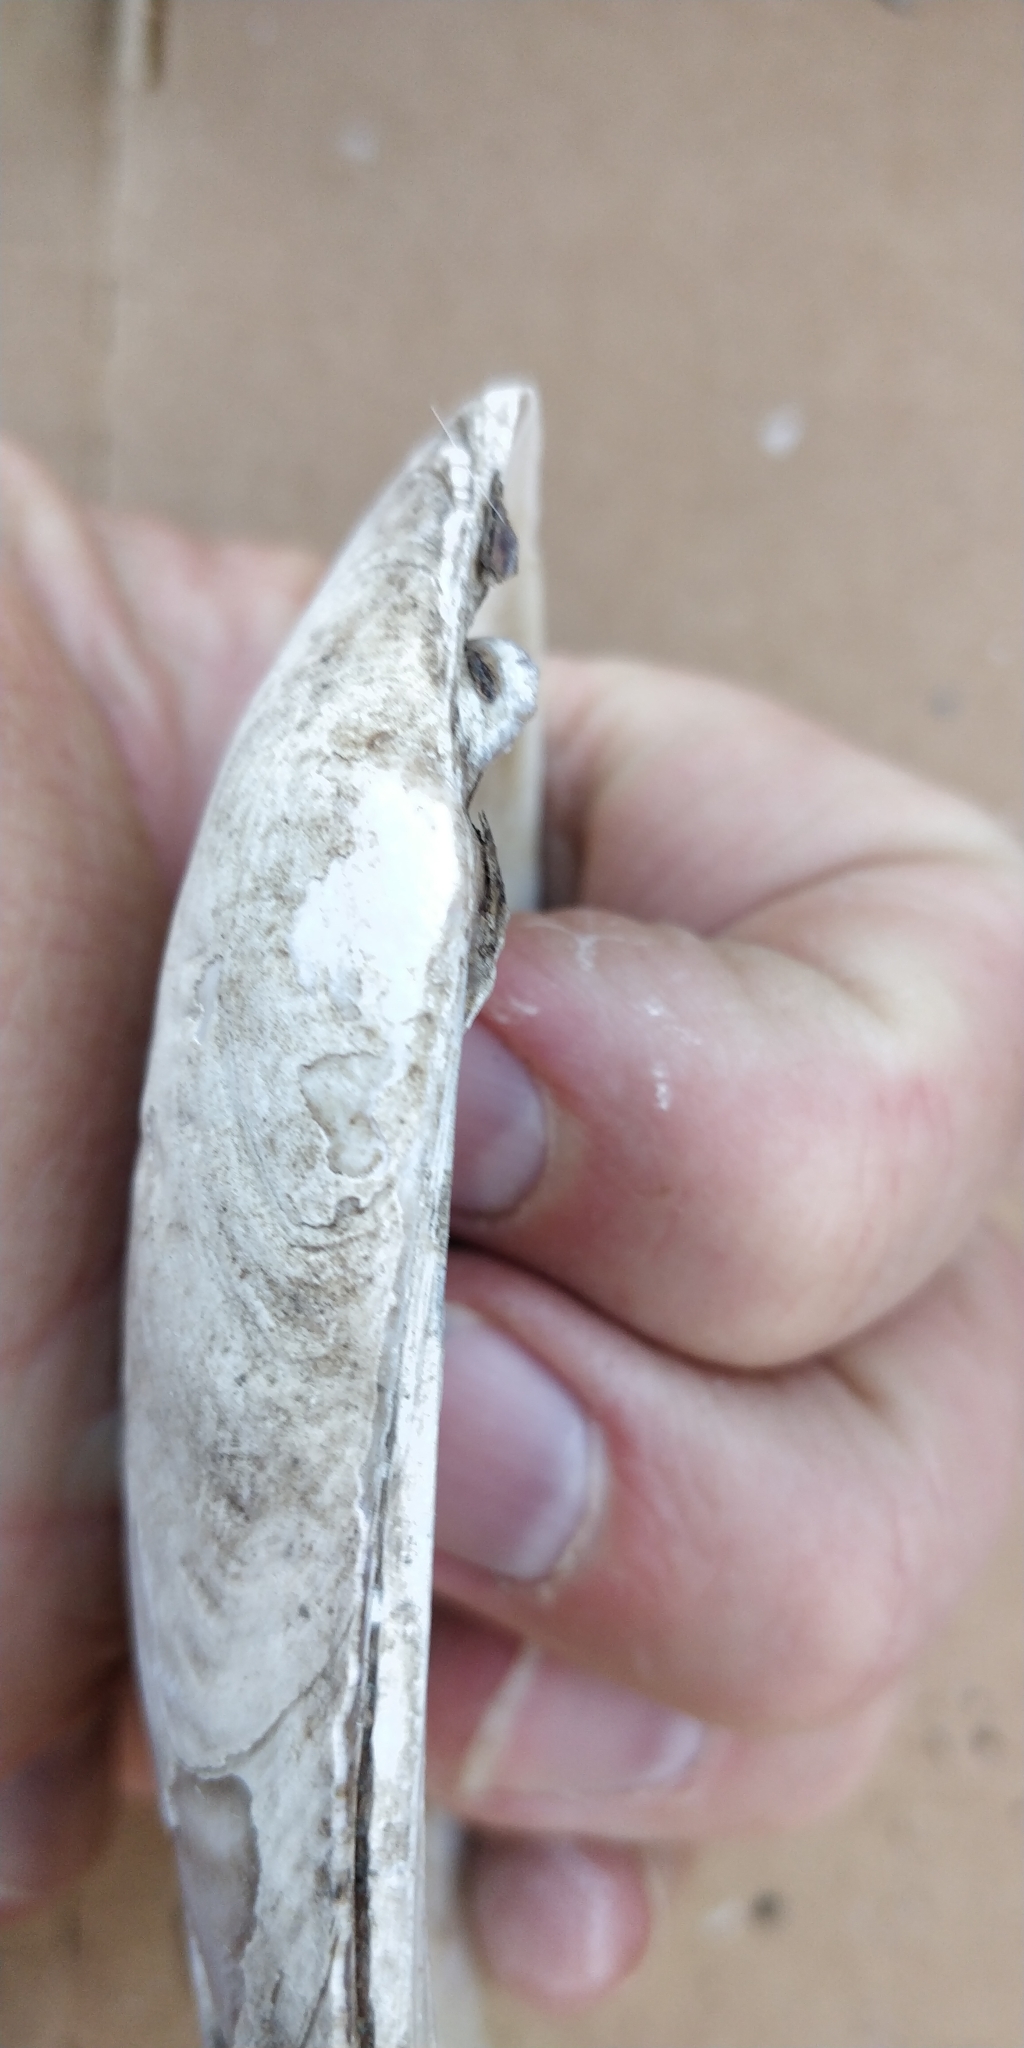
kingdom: Animalia
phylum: Mollusca
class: Bivalvia
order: Unionida
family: Unionidae
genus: Ligumia
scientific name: Ligumia recta
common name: Black sandshell
